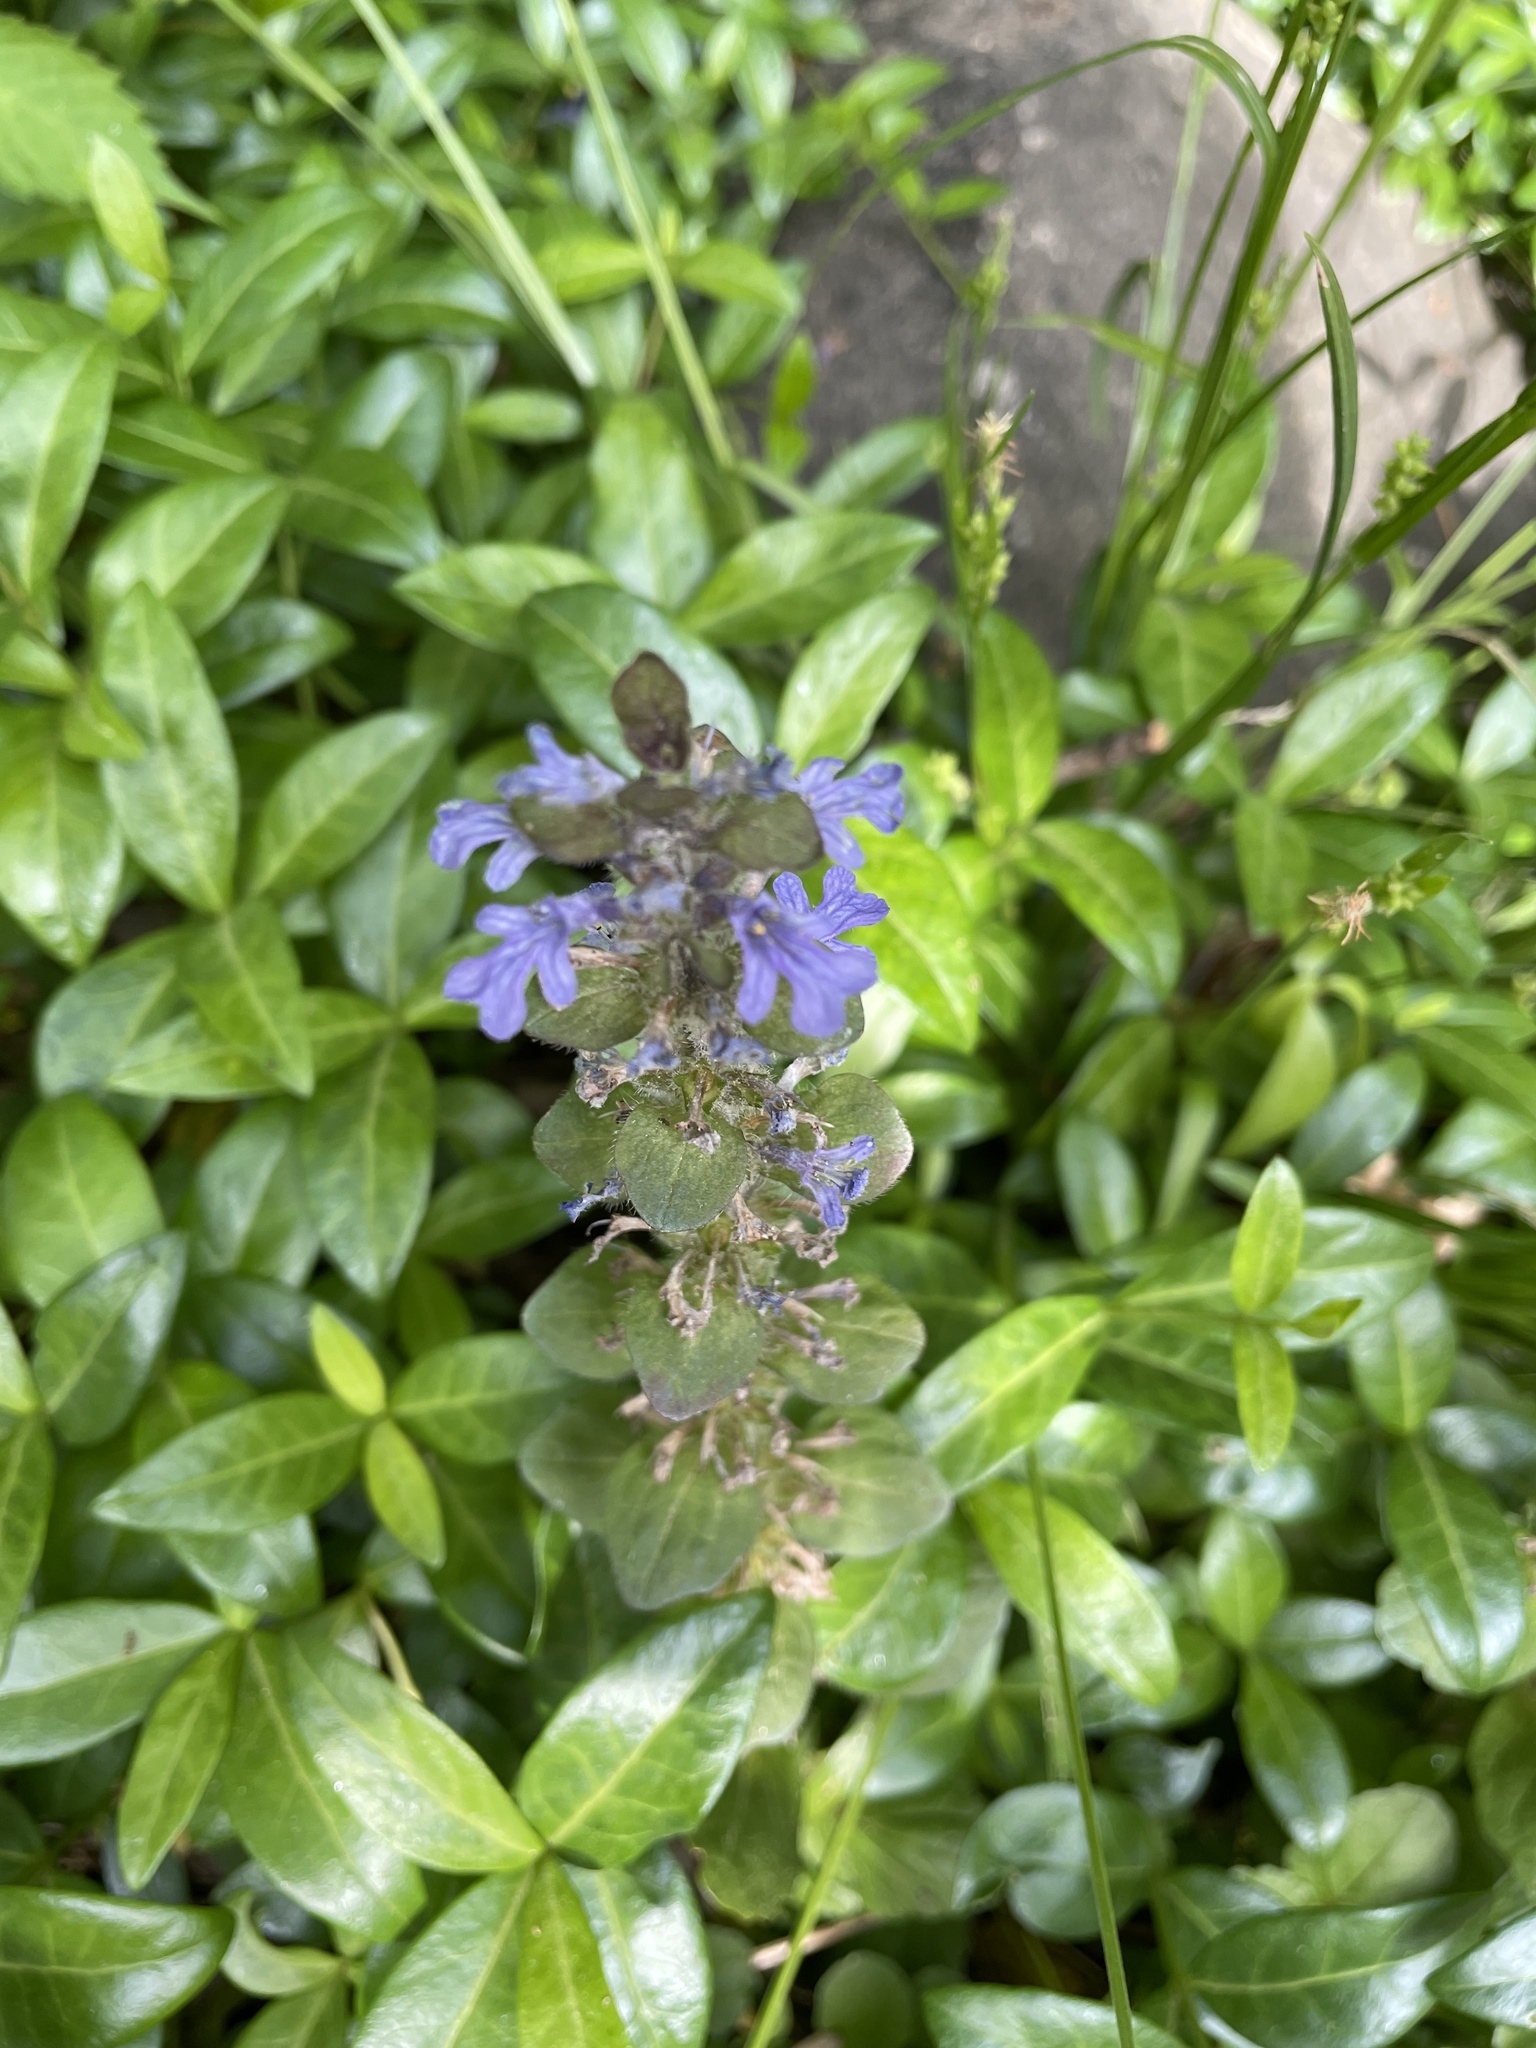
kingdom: Plantae
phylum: Tracheophyta
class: Magnoliopsida
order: Lamiales
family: Lamiaceae
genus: Ajuga
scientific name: Ajuga reptans
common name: Bugle
